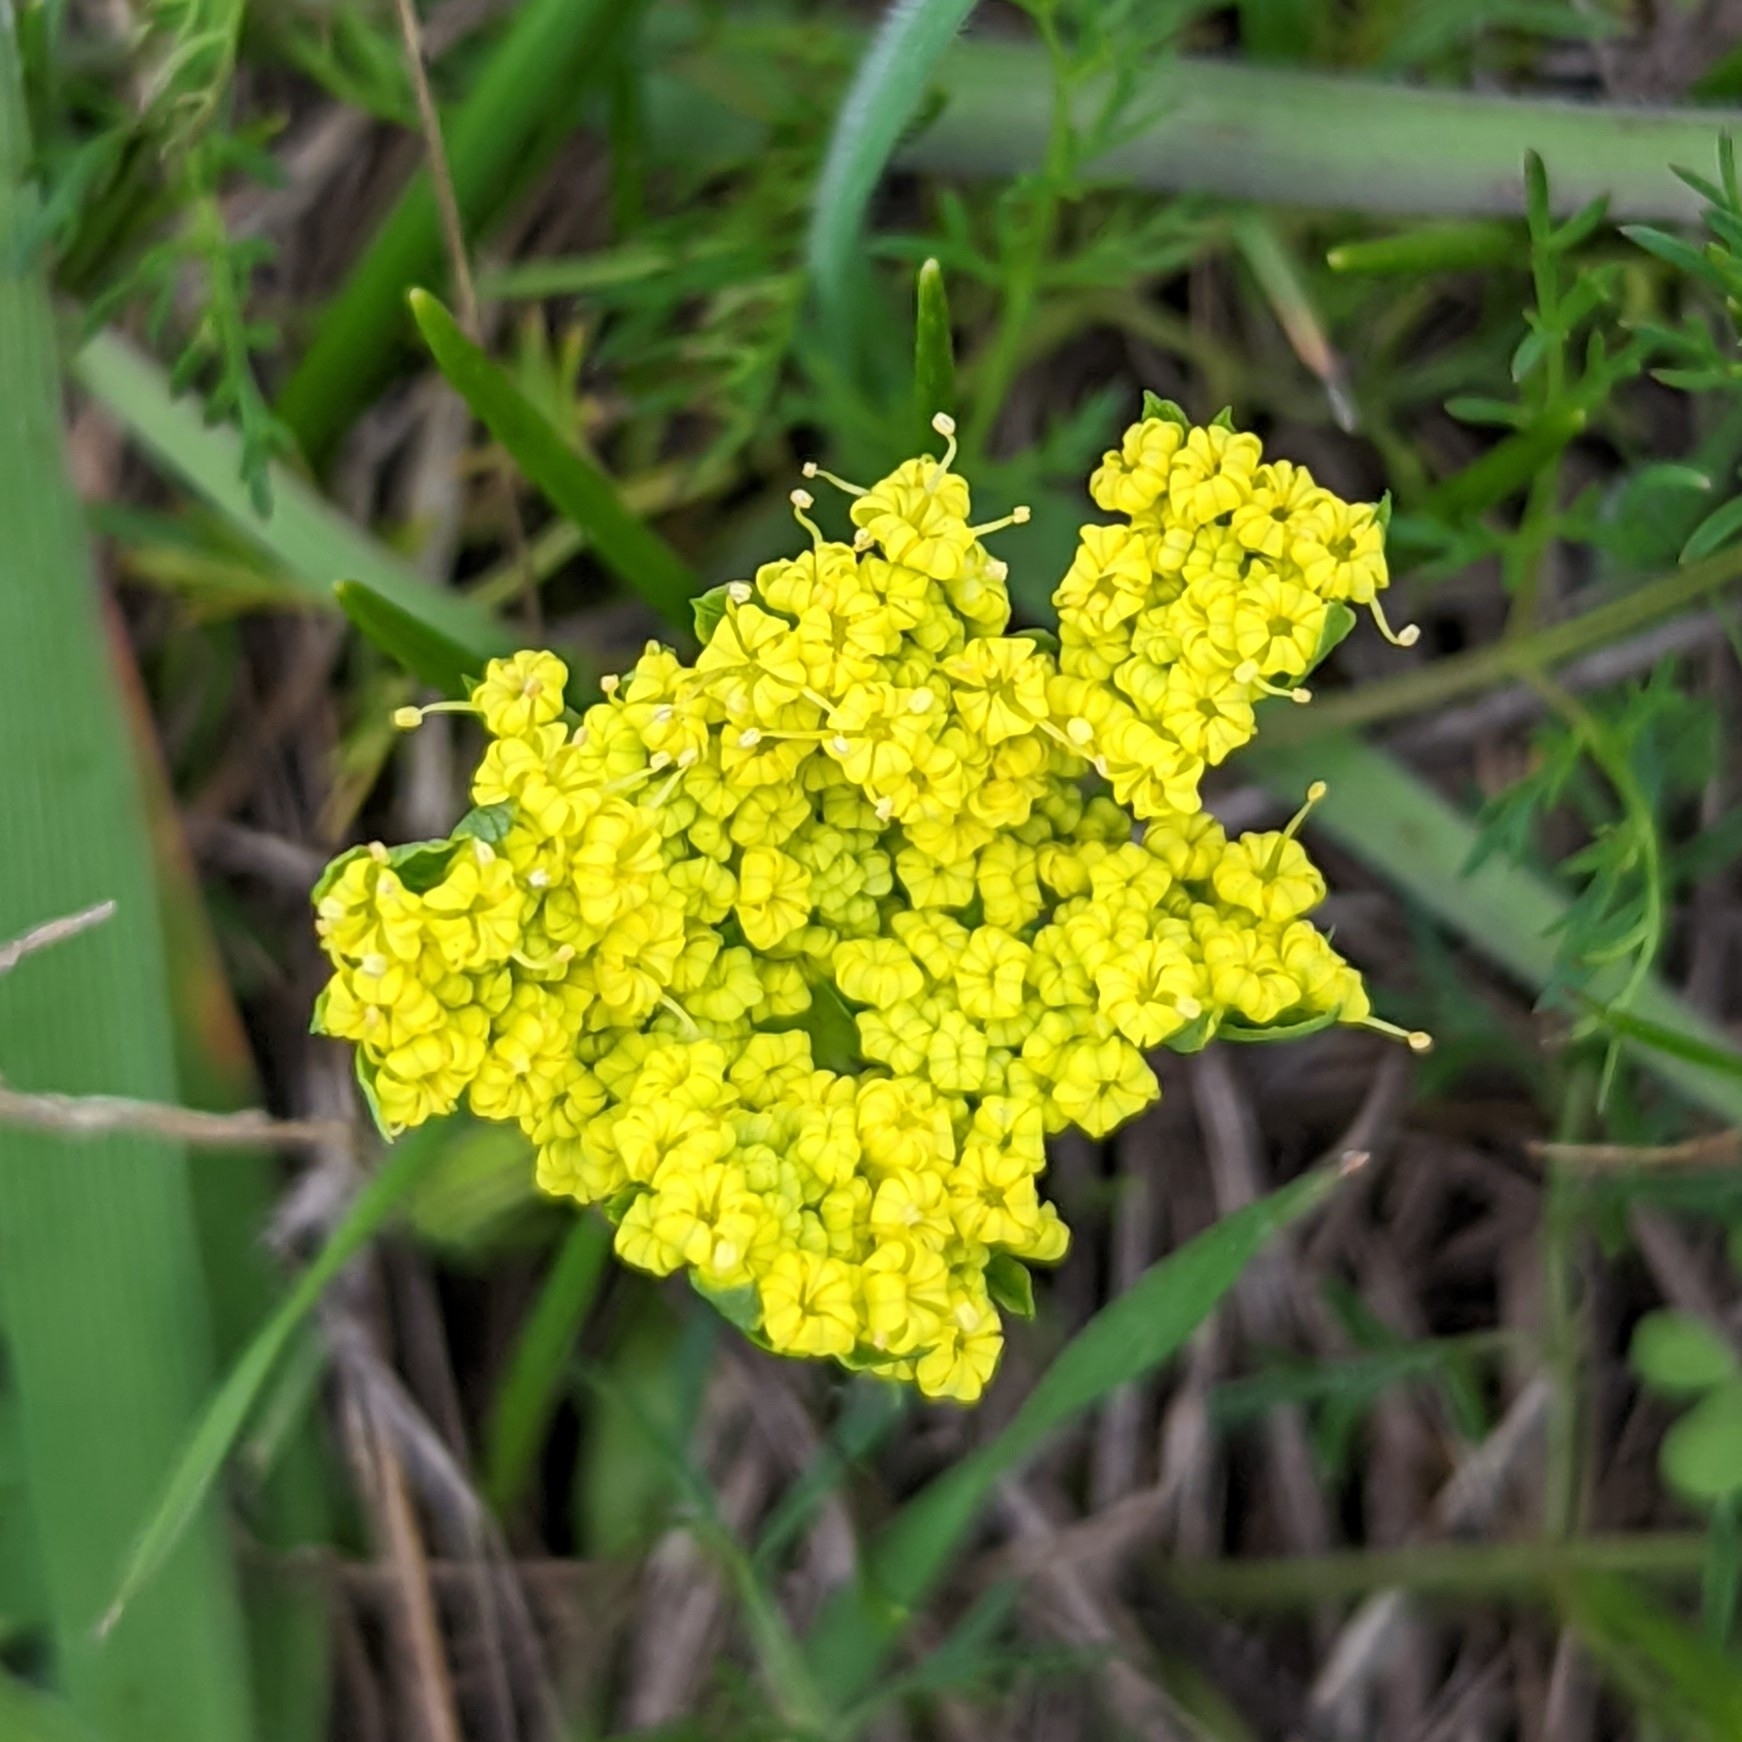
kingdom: Plantae
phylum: Tracheophyta
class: Magnoliopsida
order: Apiales
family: Apiaceae
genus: Lomatium
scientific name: Lomatium utriculatum
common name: Fine-leaf desert-parsley
